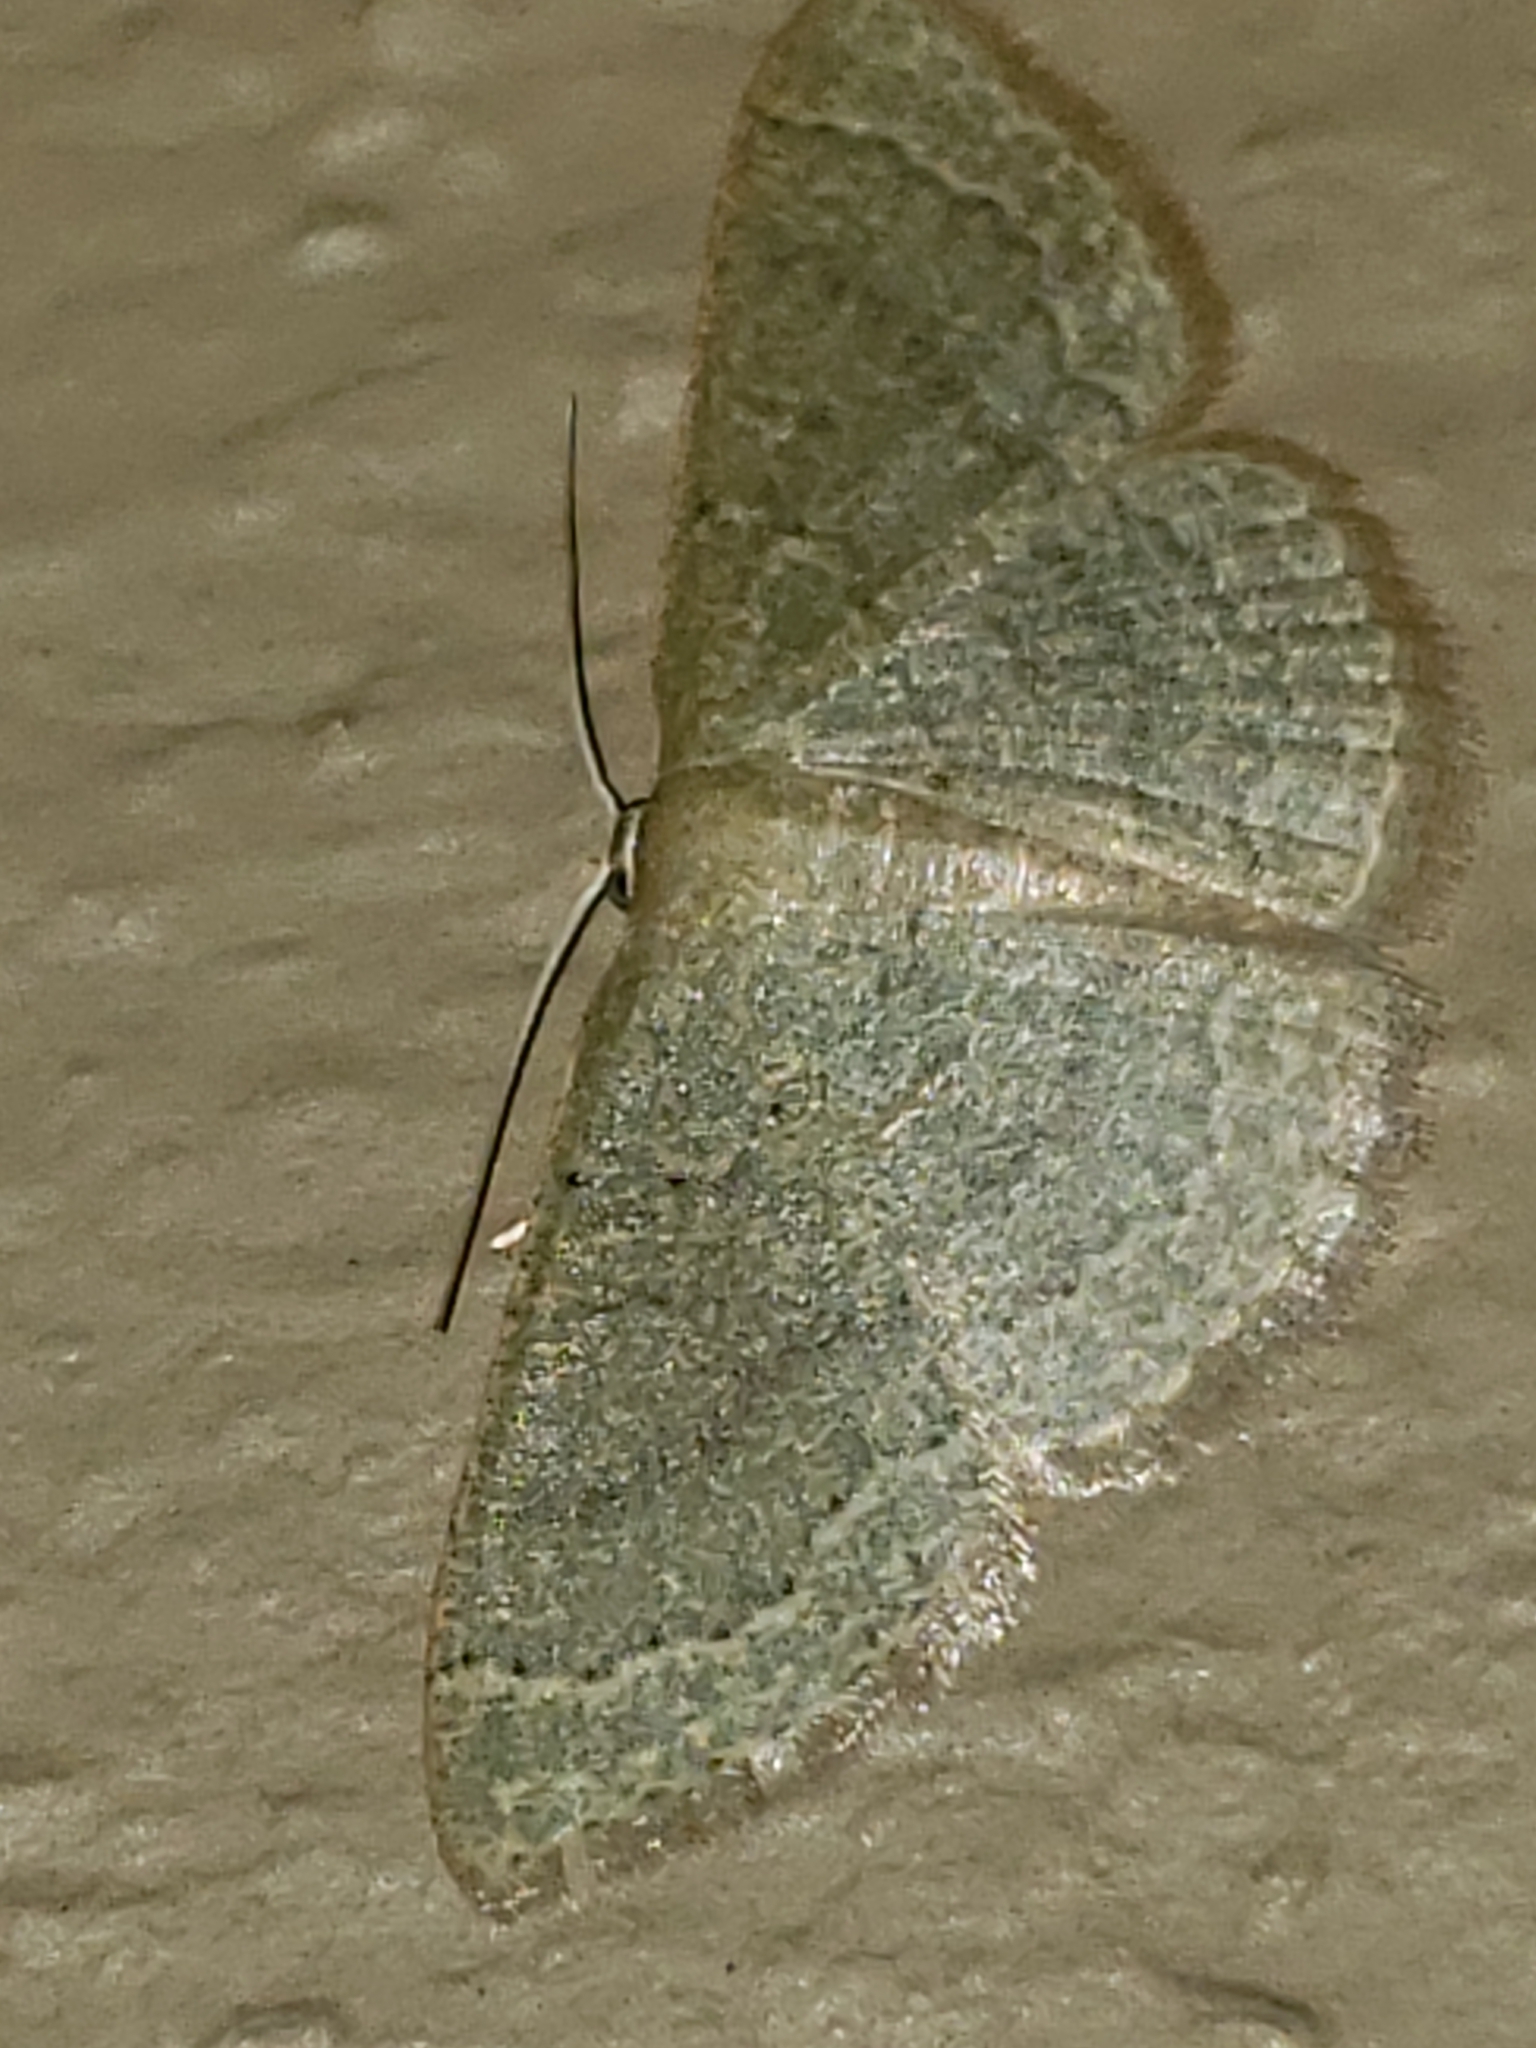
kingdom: Animalia
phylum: Arthropoda
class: Insecta
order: Lepidoptera
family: Geometridae
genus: Pleuroprucha
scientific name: Pleuroprucha insulsaria
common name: Common tan wave
